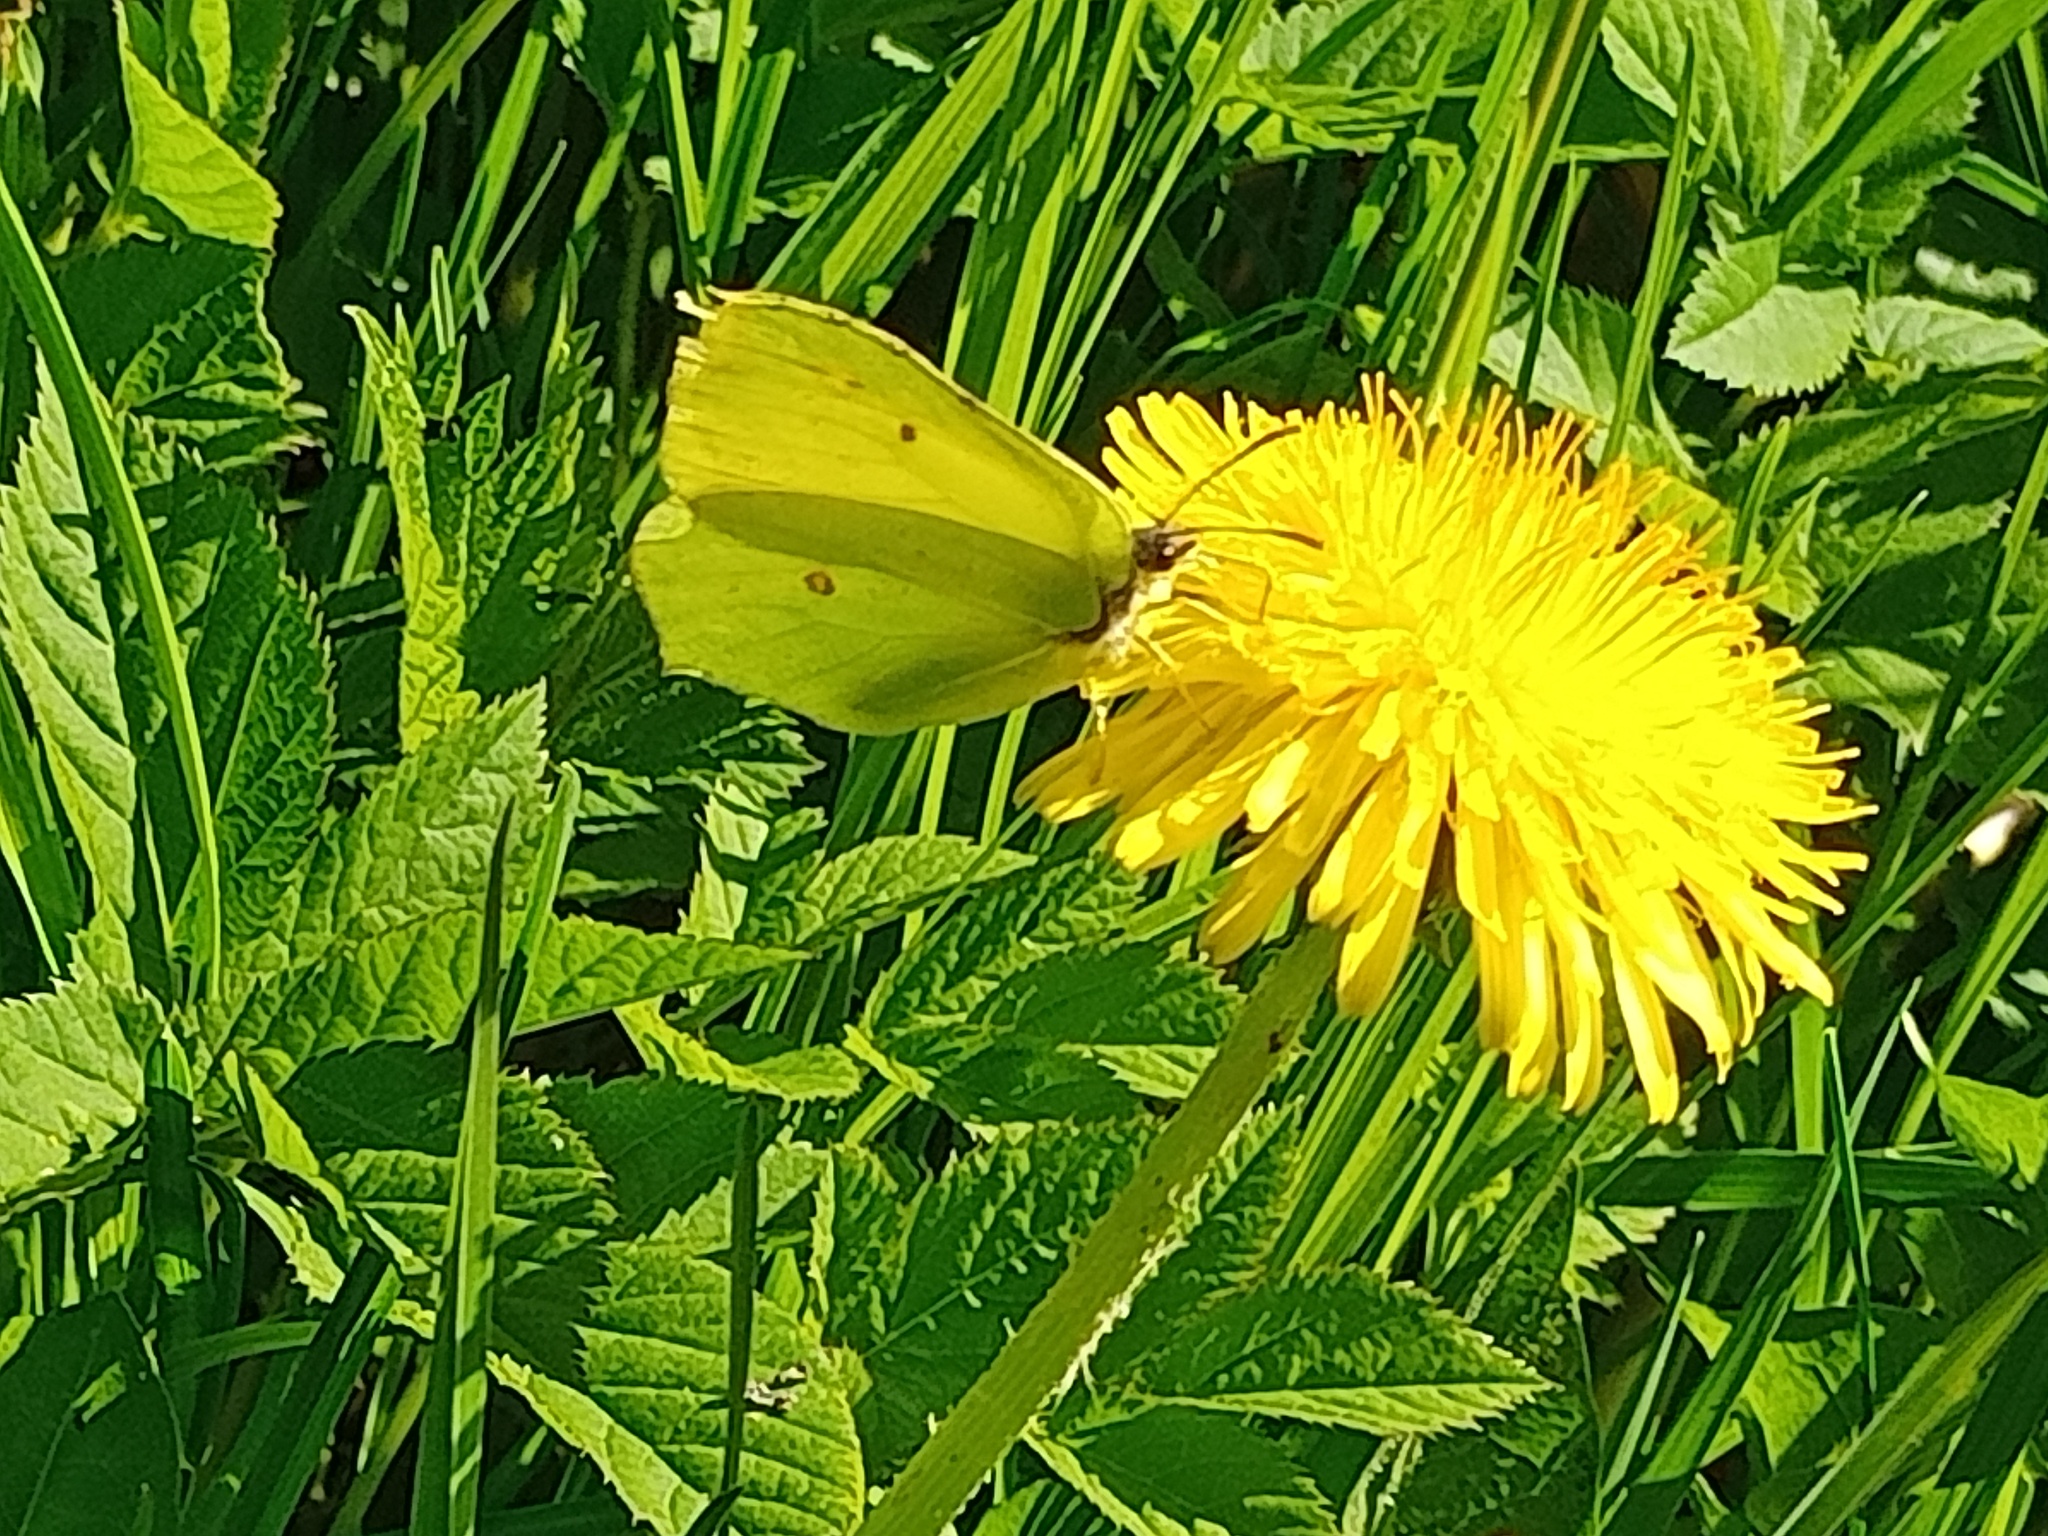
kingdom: Animalia
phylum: Arthropoda
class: Insecta
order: Lepidoptera
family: Pieridae
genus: Gonepteryx
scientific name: Gonepteryx rhamni
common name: Brimstone
